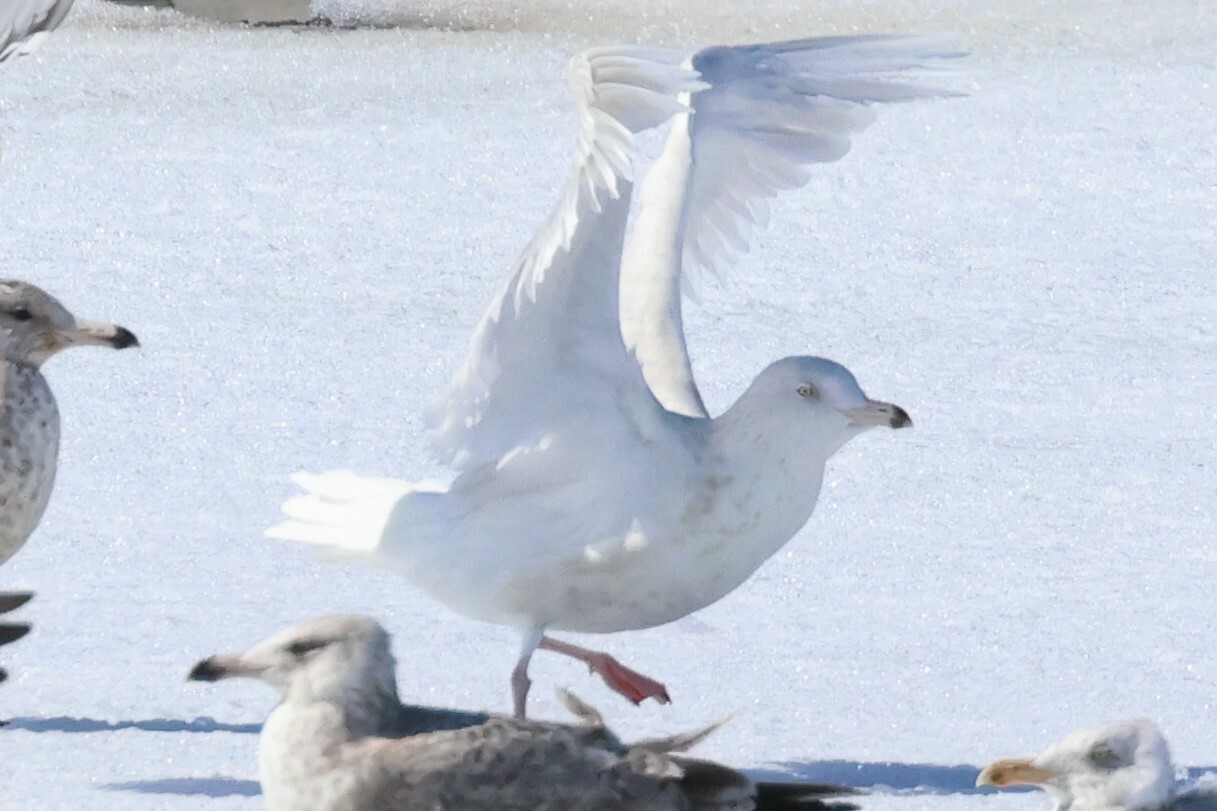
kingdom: Animalia
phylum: Chordata
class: Aves
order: Charadriiformes
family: Laridae
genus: Larus
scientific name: Larus hyperboreus
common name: Glaucous gull
